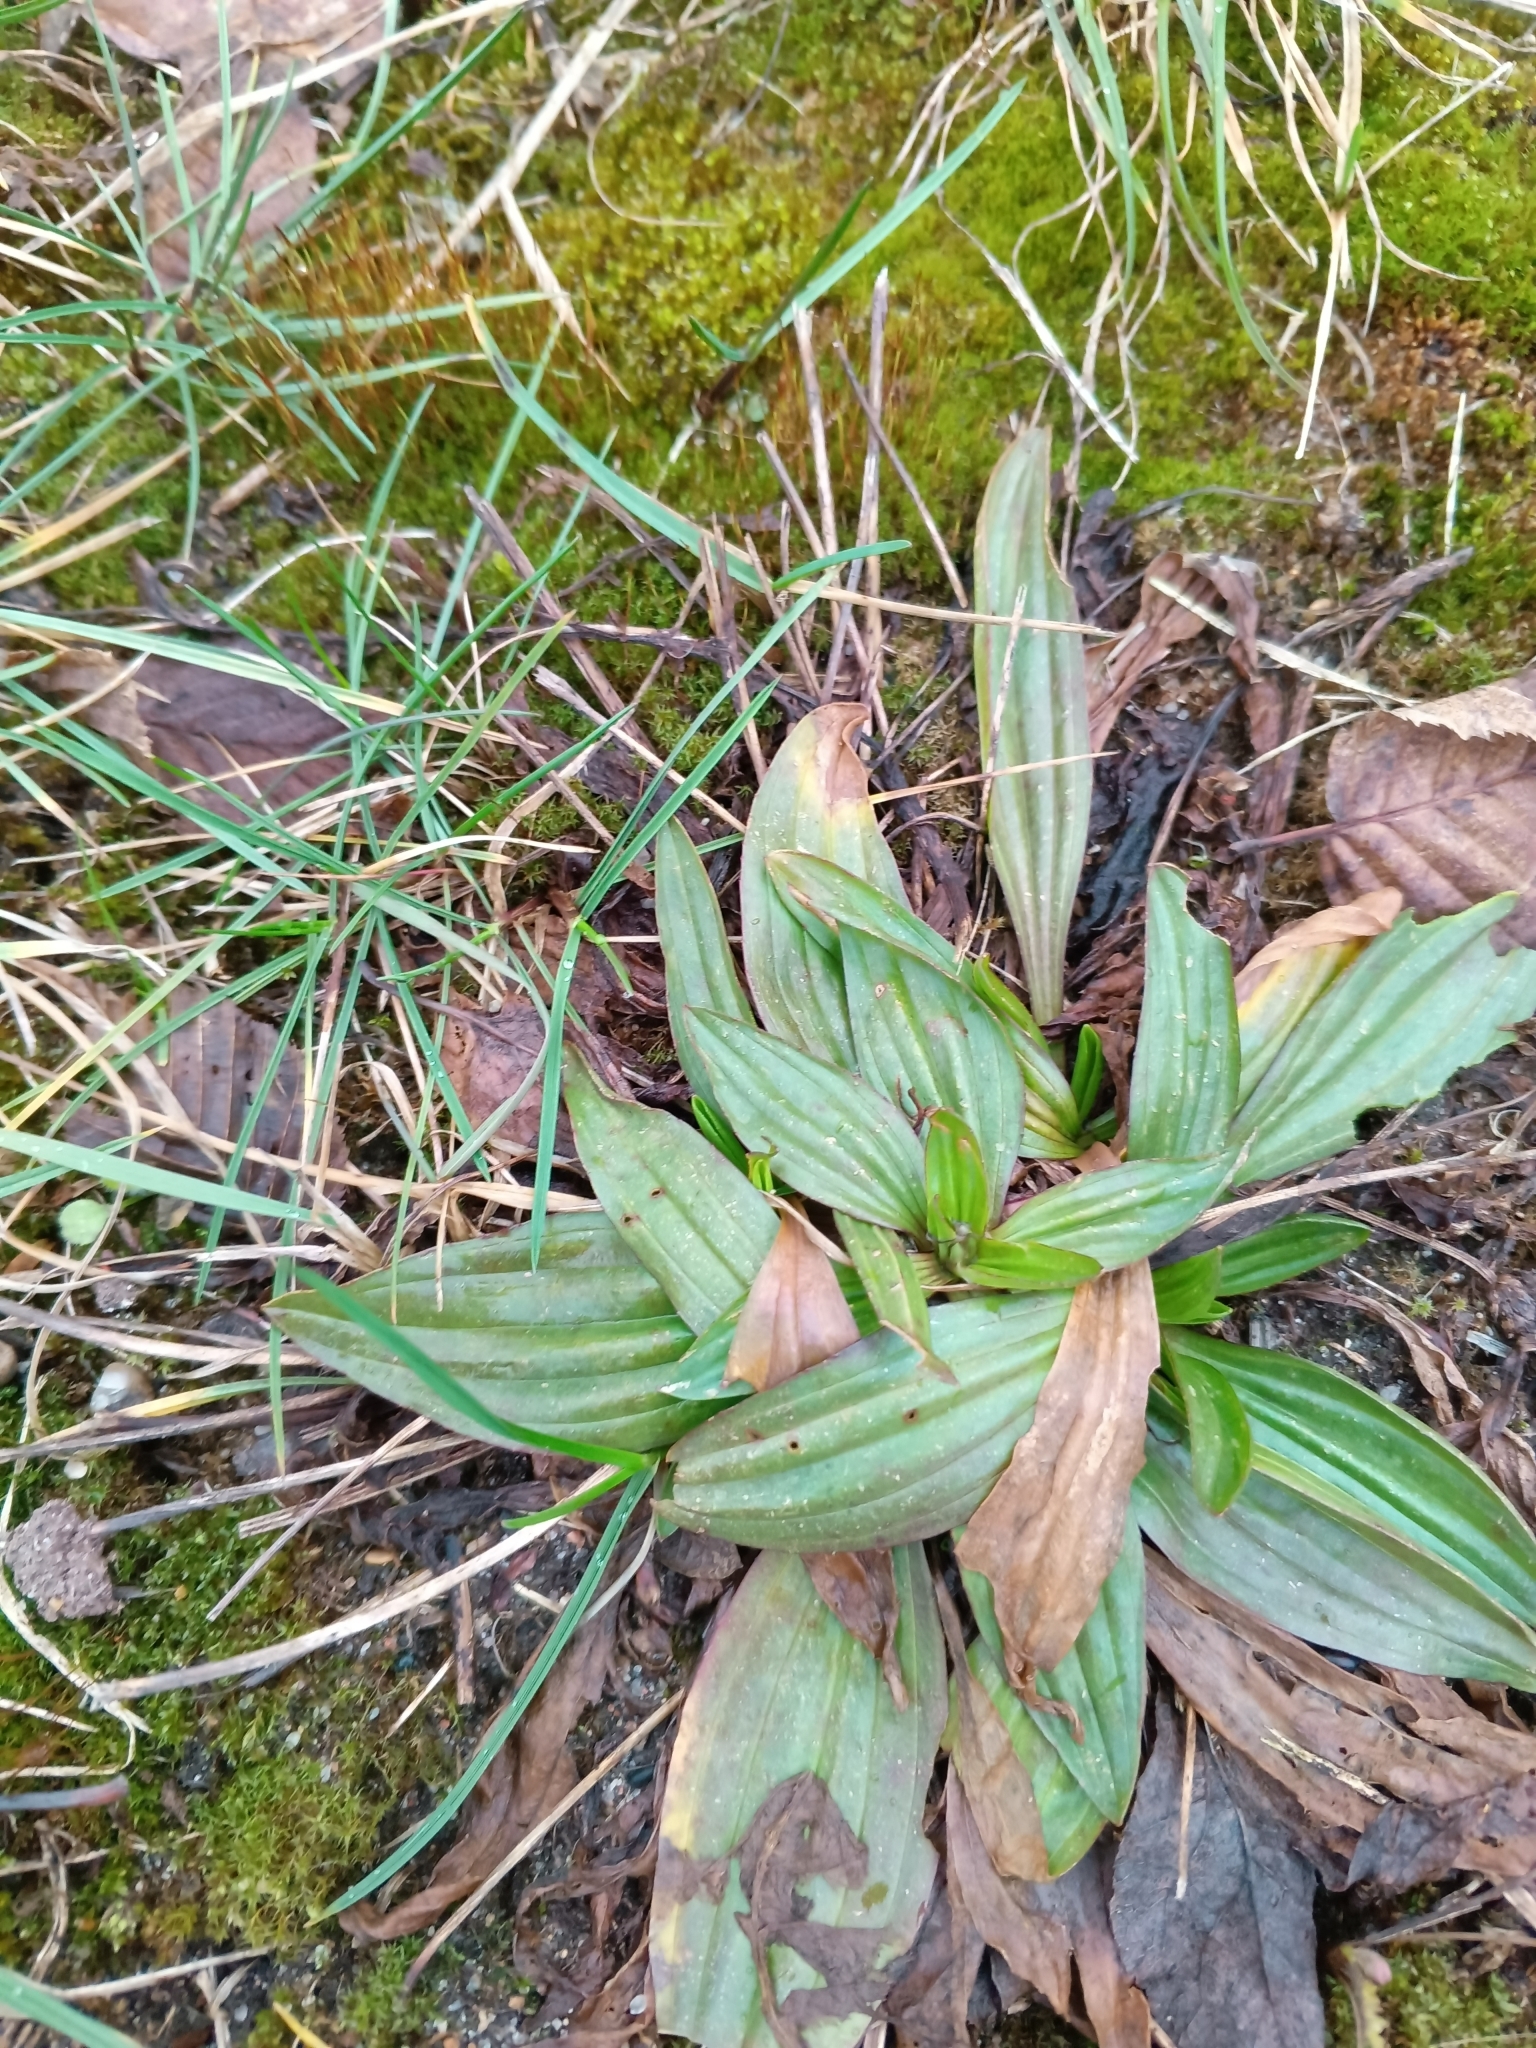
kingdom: Plantae
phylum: Tracheophyta
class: Magnoliopsida
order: Lamiales
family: Plantaginaceae
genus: Plantago
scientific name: Plantago lanceolata
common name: Ribwort plantain
